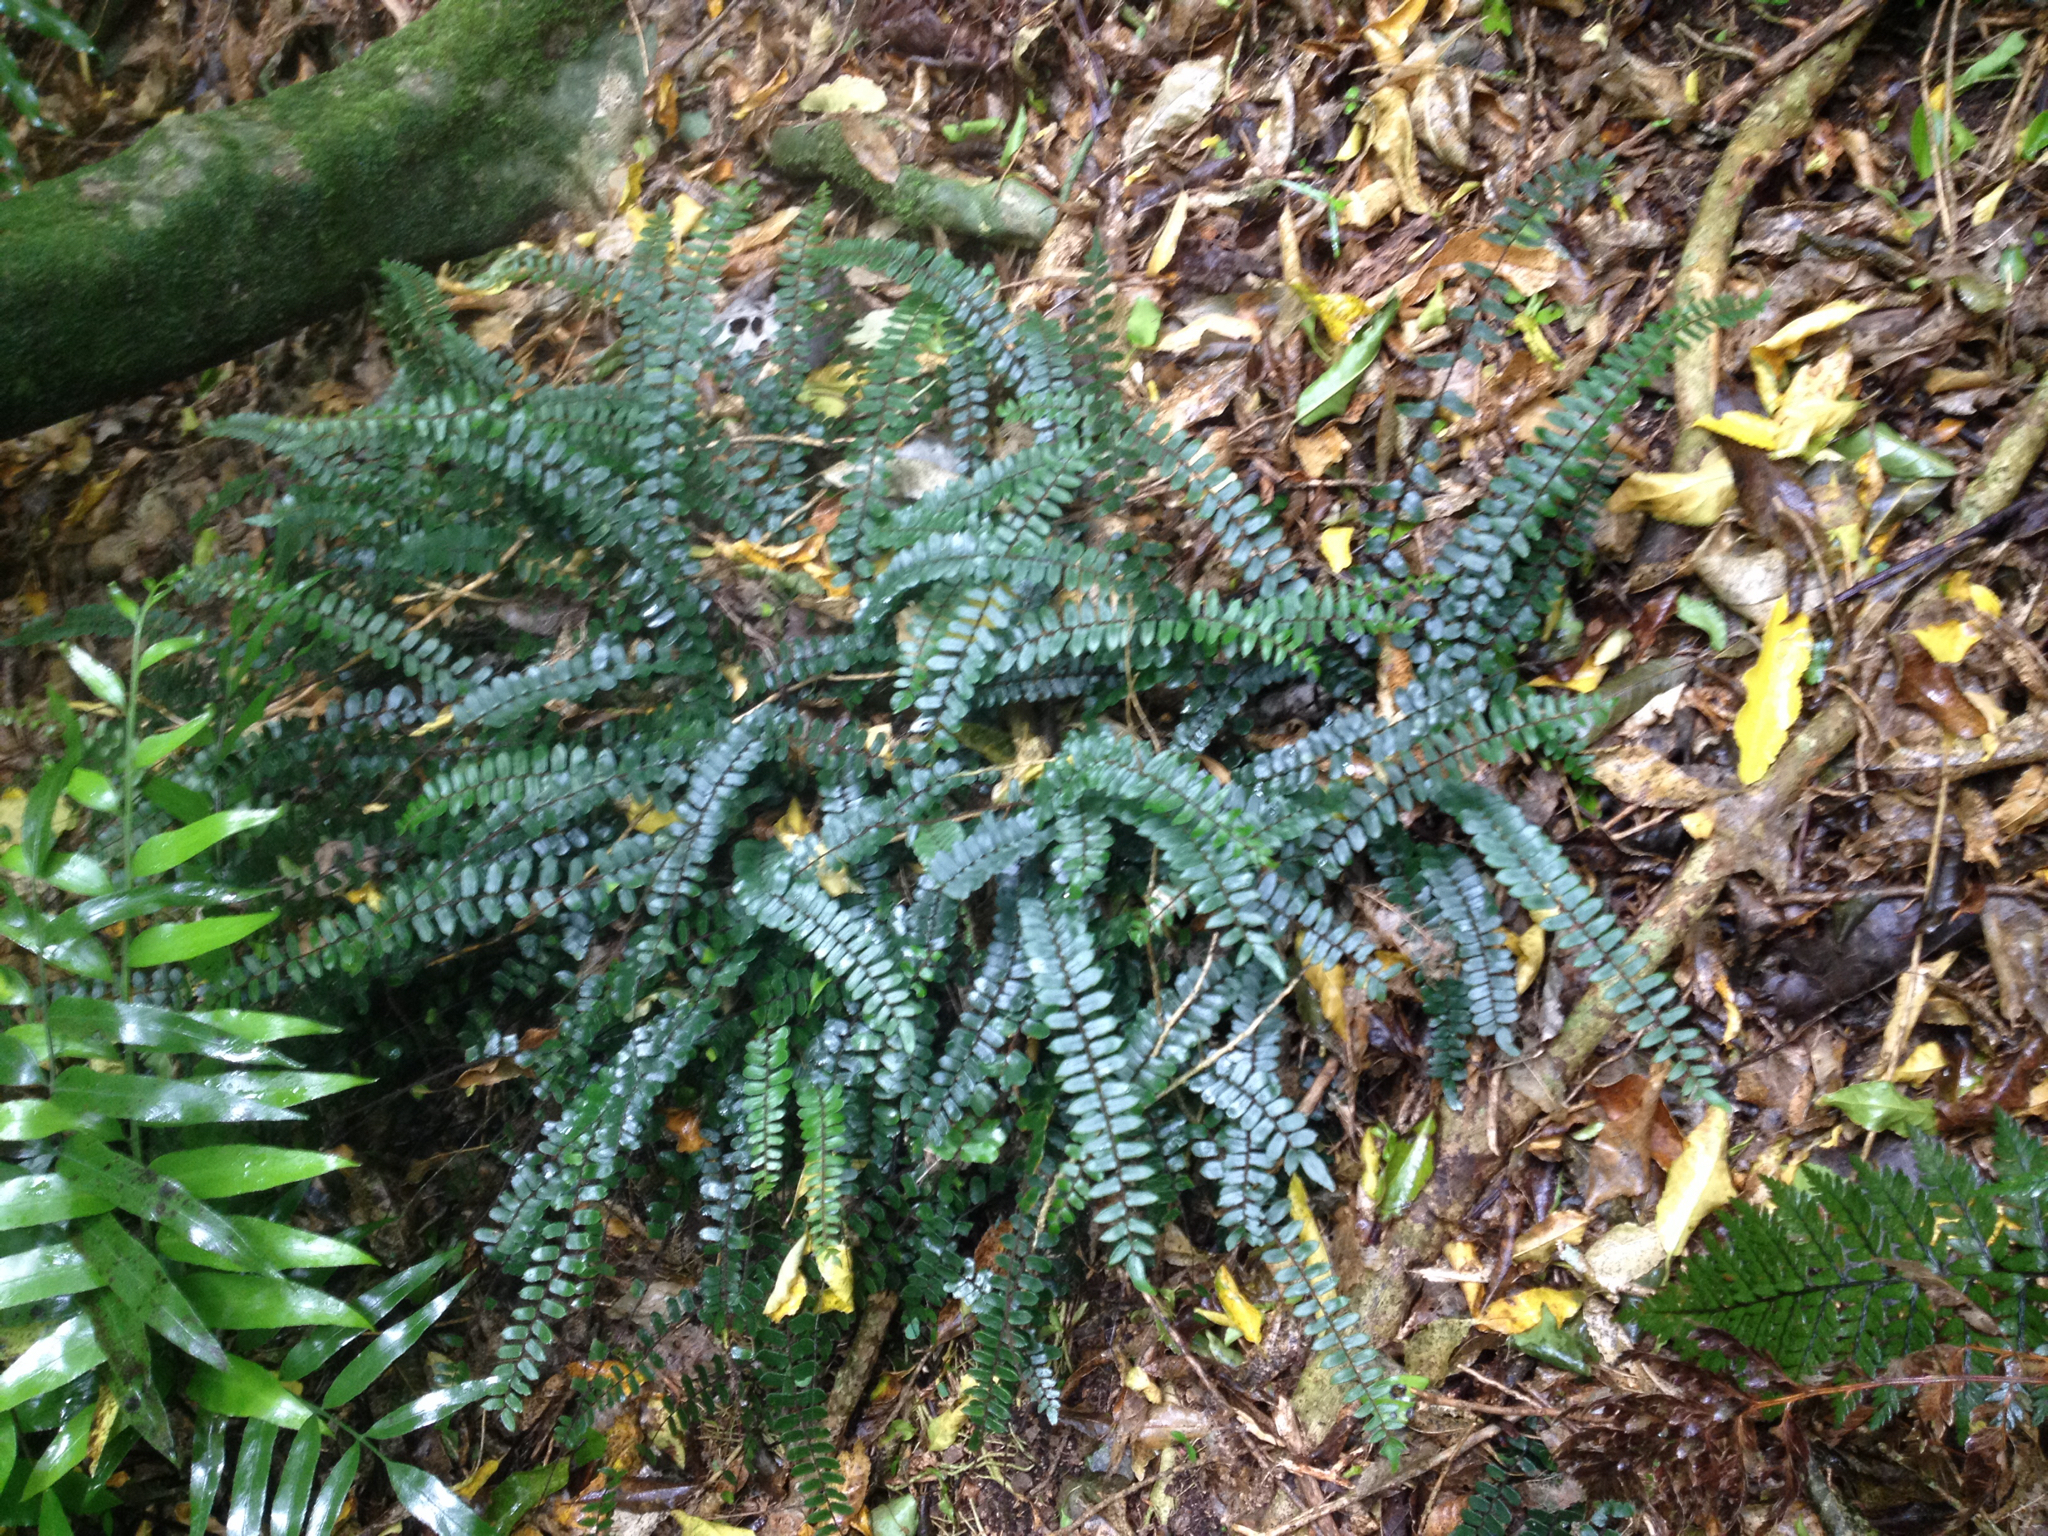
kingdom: Plantae
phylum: Tracheophyta
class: Polypodiopsida
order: Polypodiales
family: Pteridaceae
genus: Pellaea
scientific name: Pellaea rotundifolia
